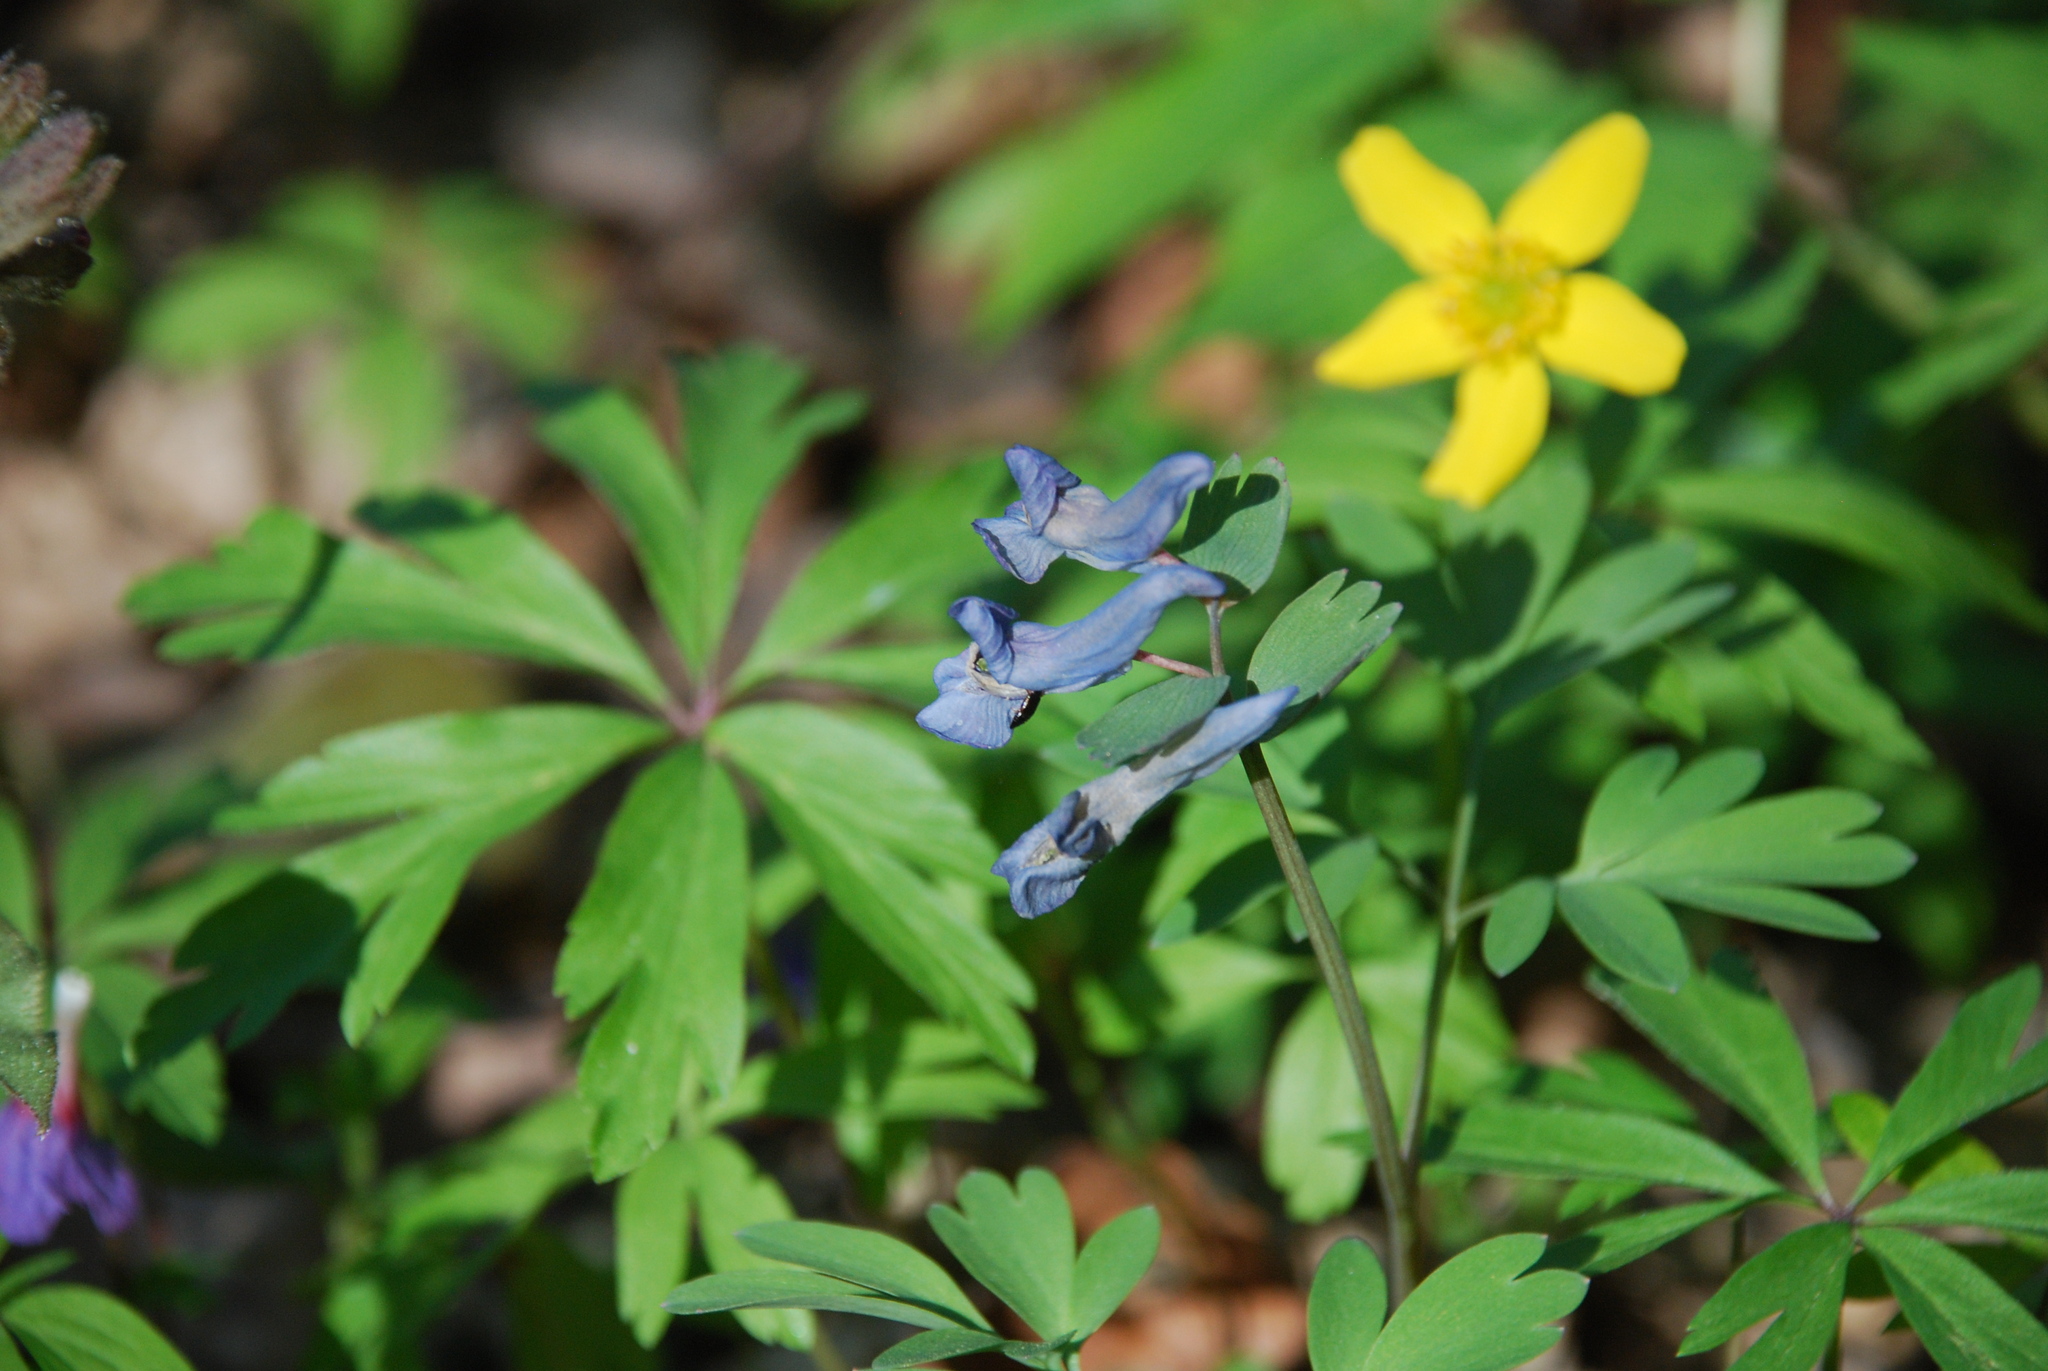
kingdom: Plantae
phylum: Tracheophyta
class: Magnoliopsida
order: Ranunculales
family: Papaveraceae
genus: Corydalis
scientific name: Corydalis solida
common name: Bird-in-a-bush
